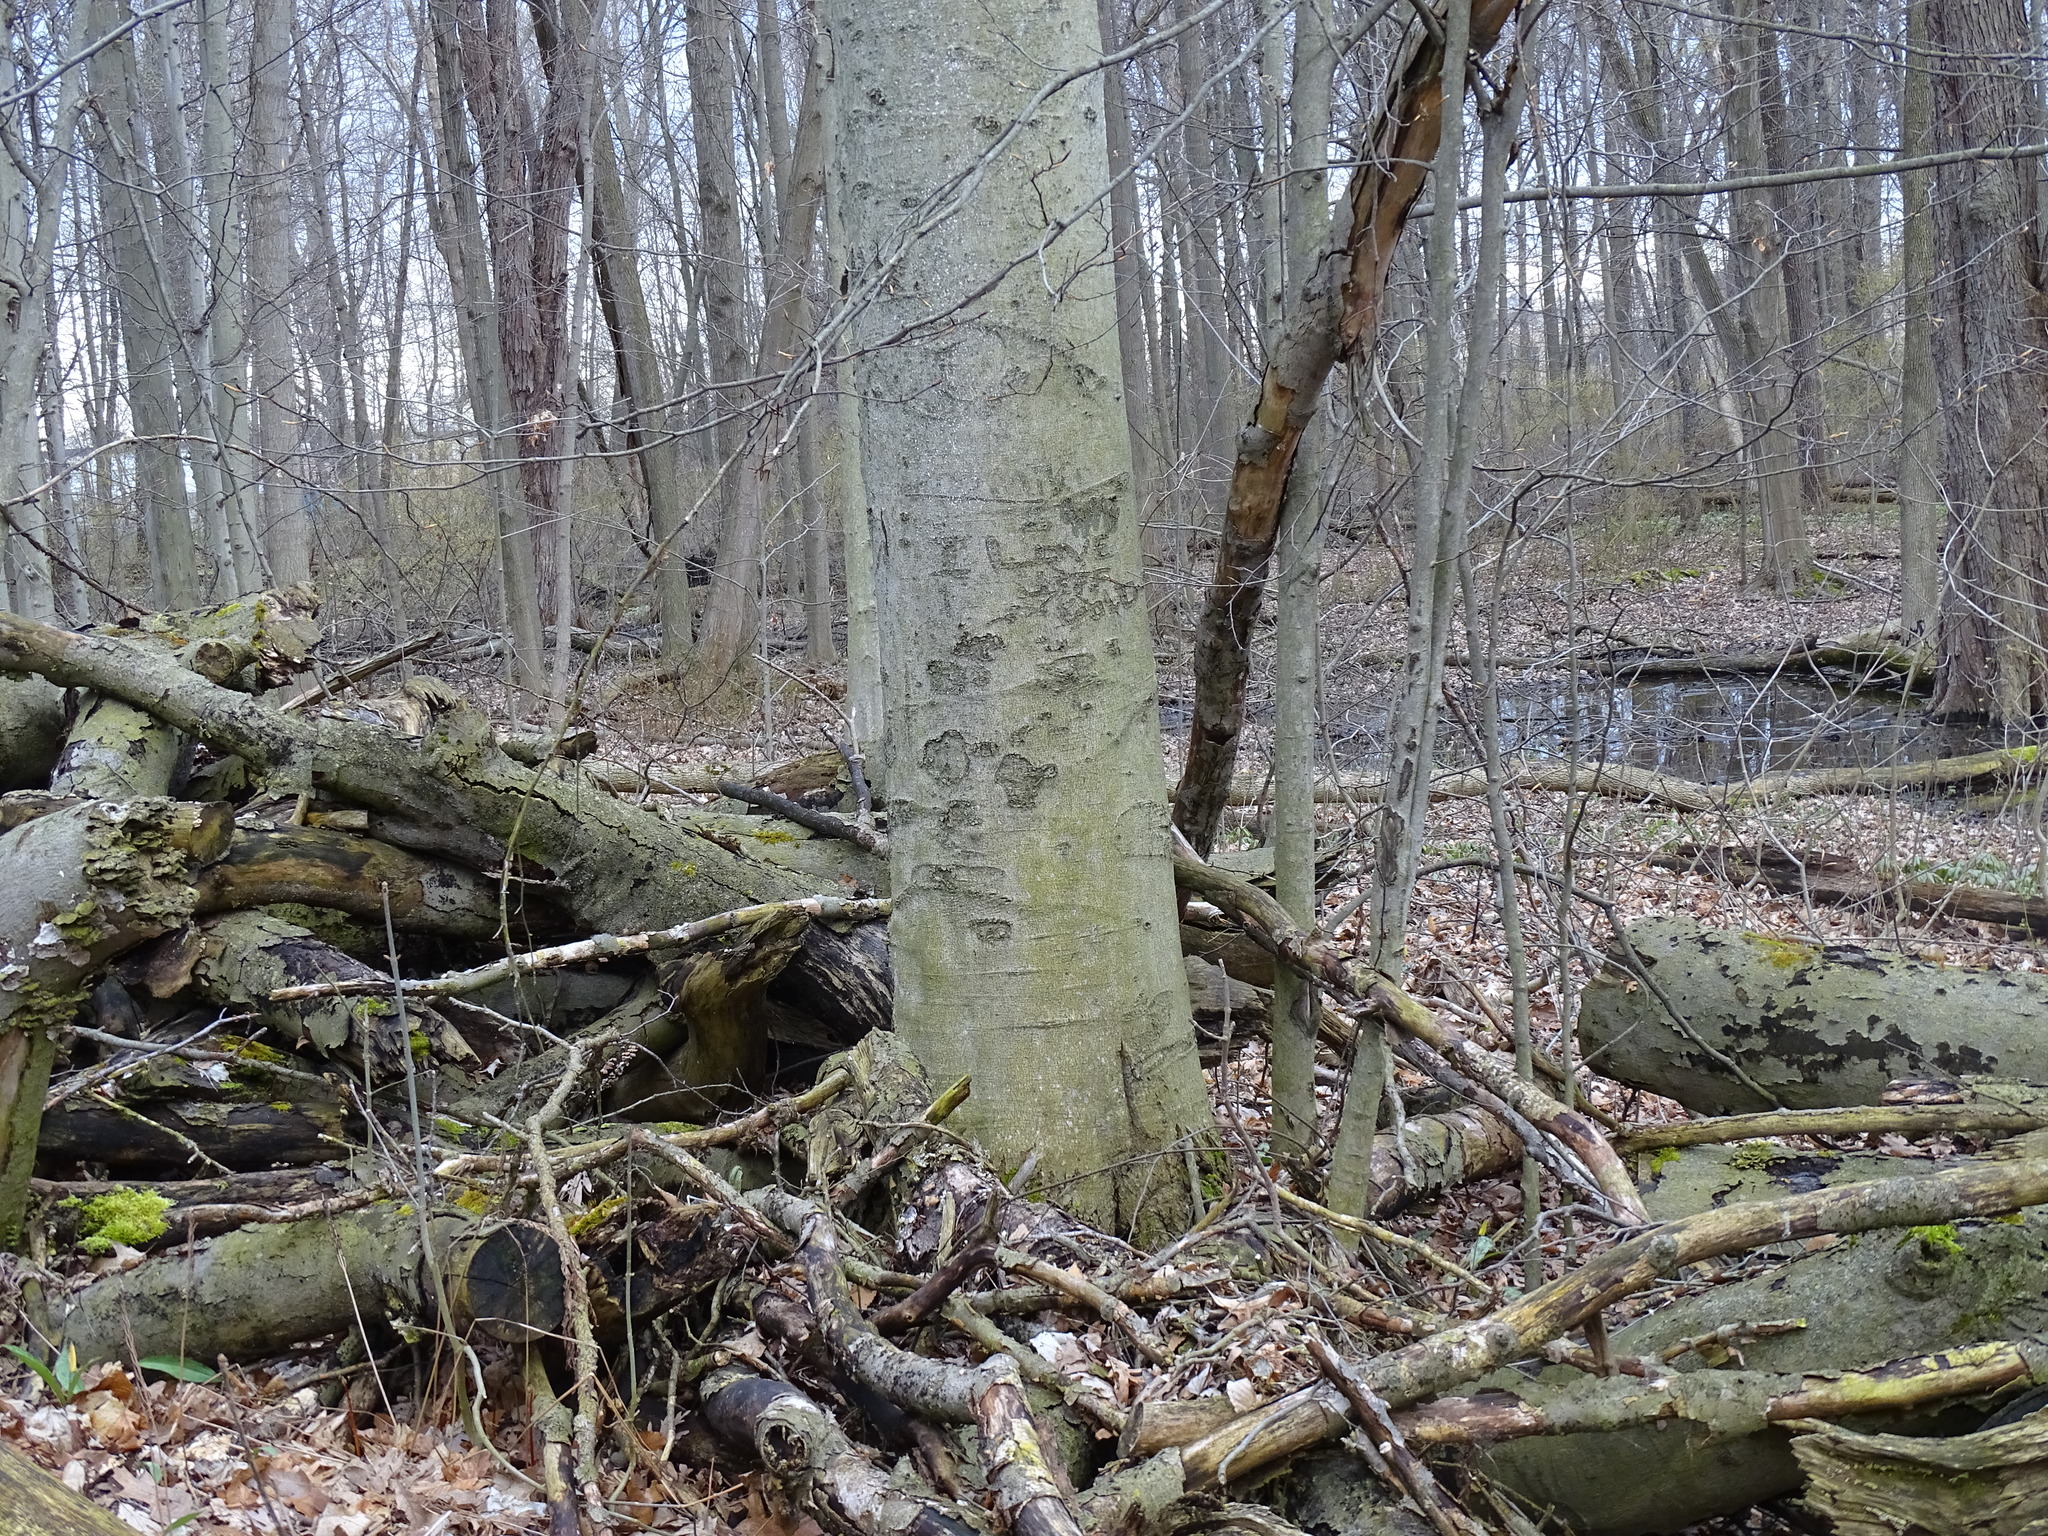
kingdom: Plantae
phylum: Tracheophyta
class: Magnoliopsida
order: Fagales
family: Fagaceae
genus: Fagus
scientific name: Fagus grandifolia
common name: American beech
